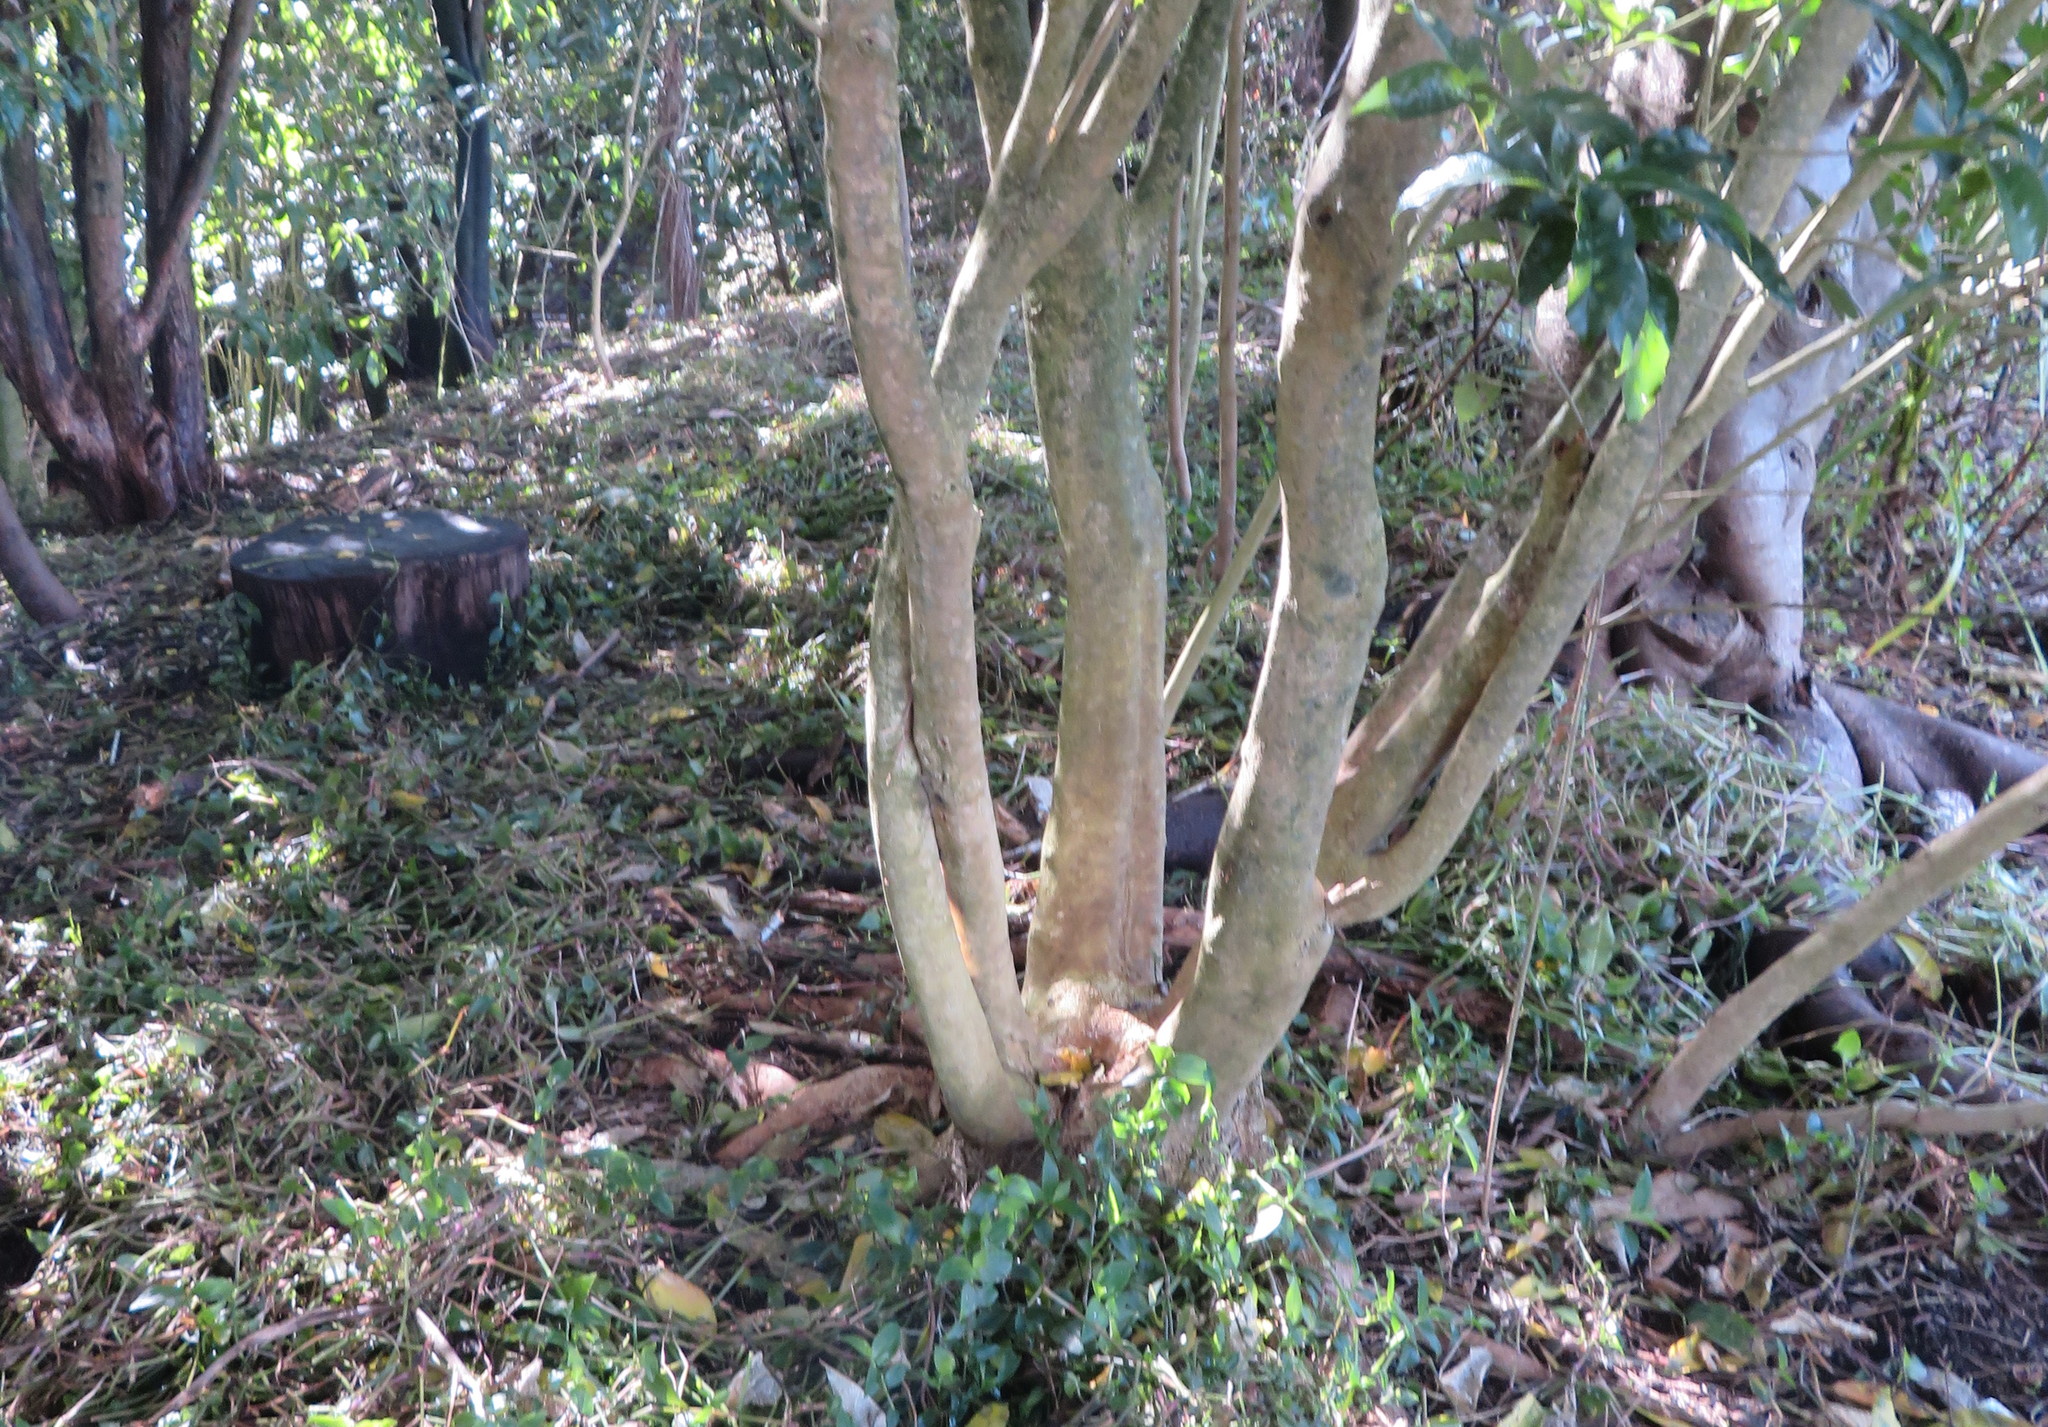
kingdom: Plantae
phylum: Tracheophyta
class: Liliopsida
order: Commelinales
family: Commelinaceae
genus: Tradescantia
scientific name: Tradescantia fluminensis
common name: Wandering-jew
